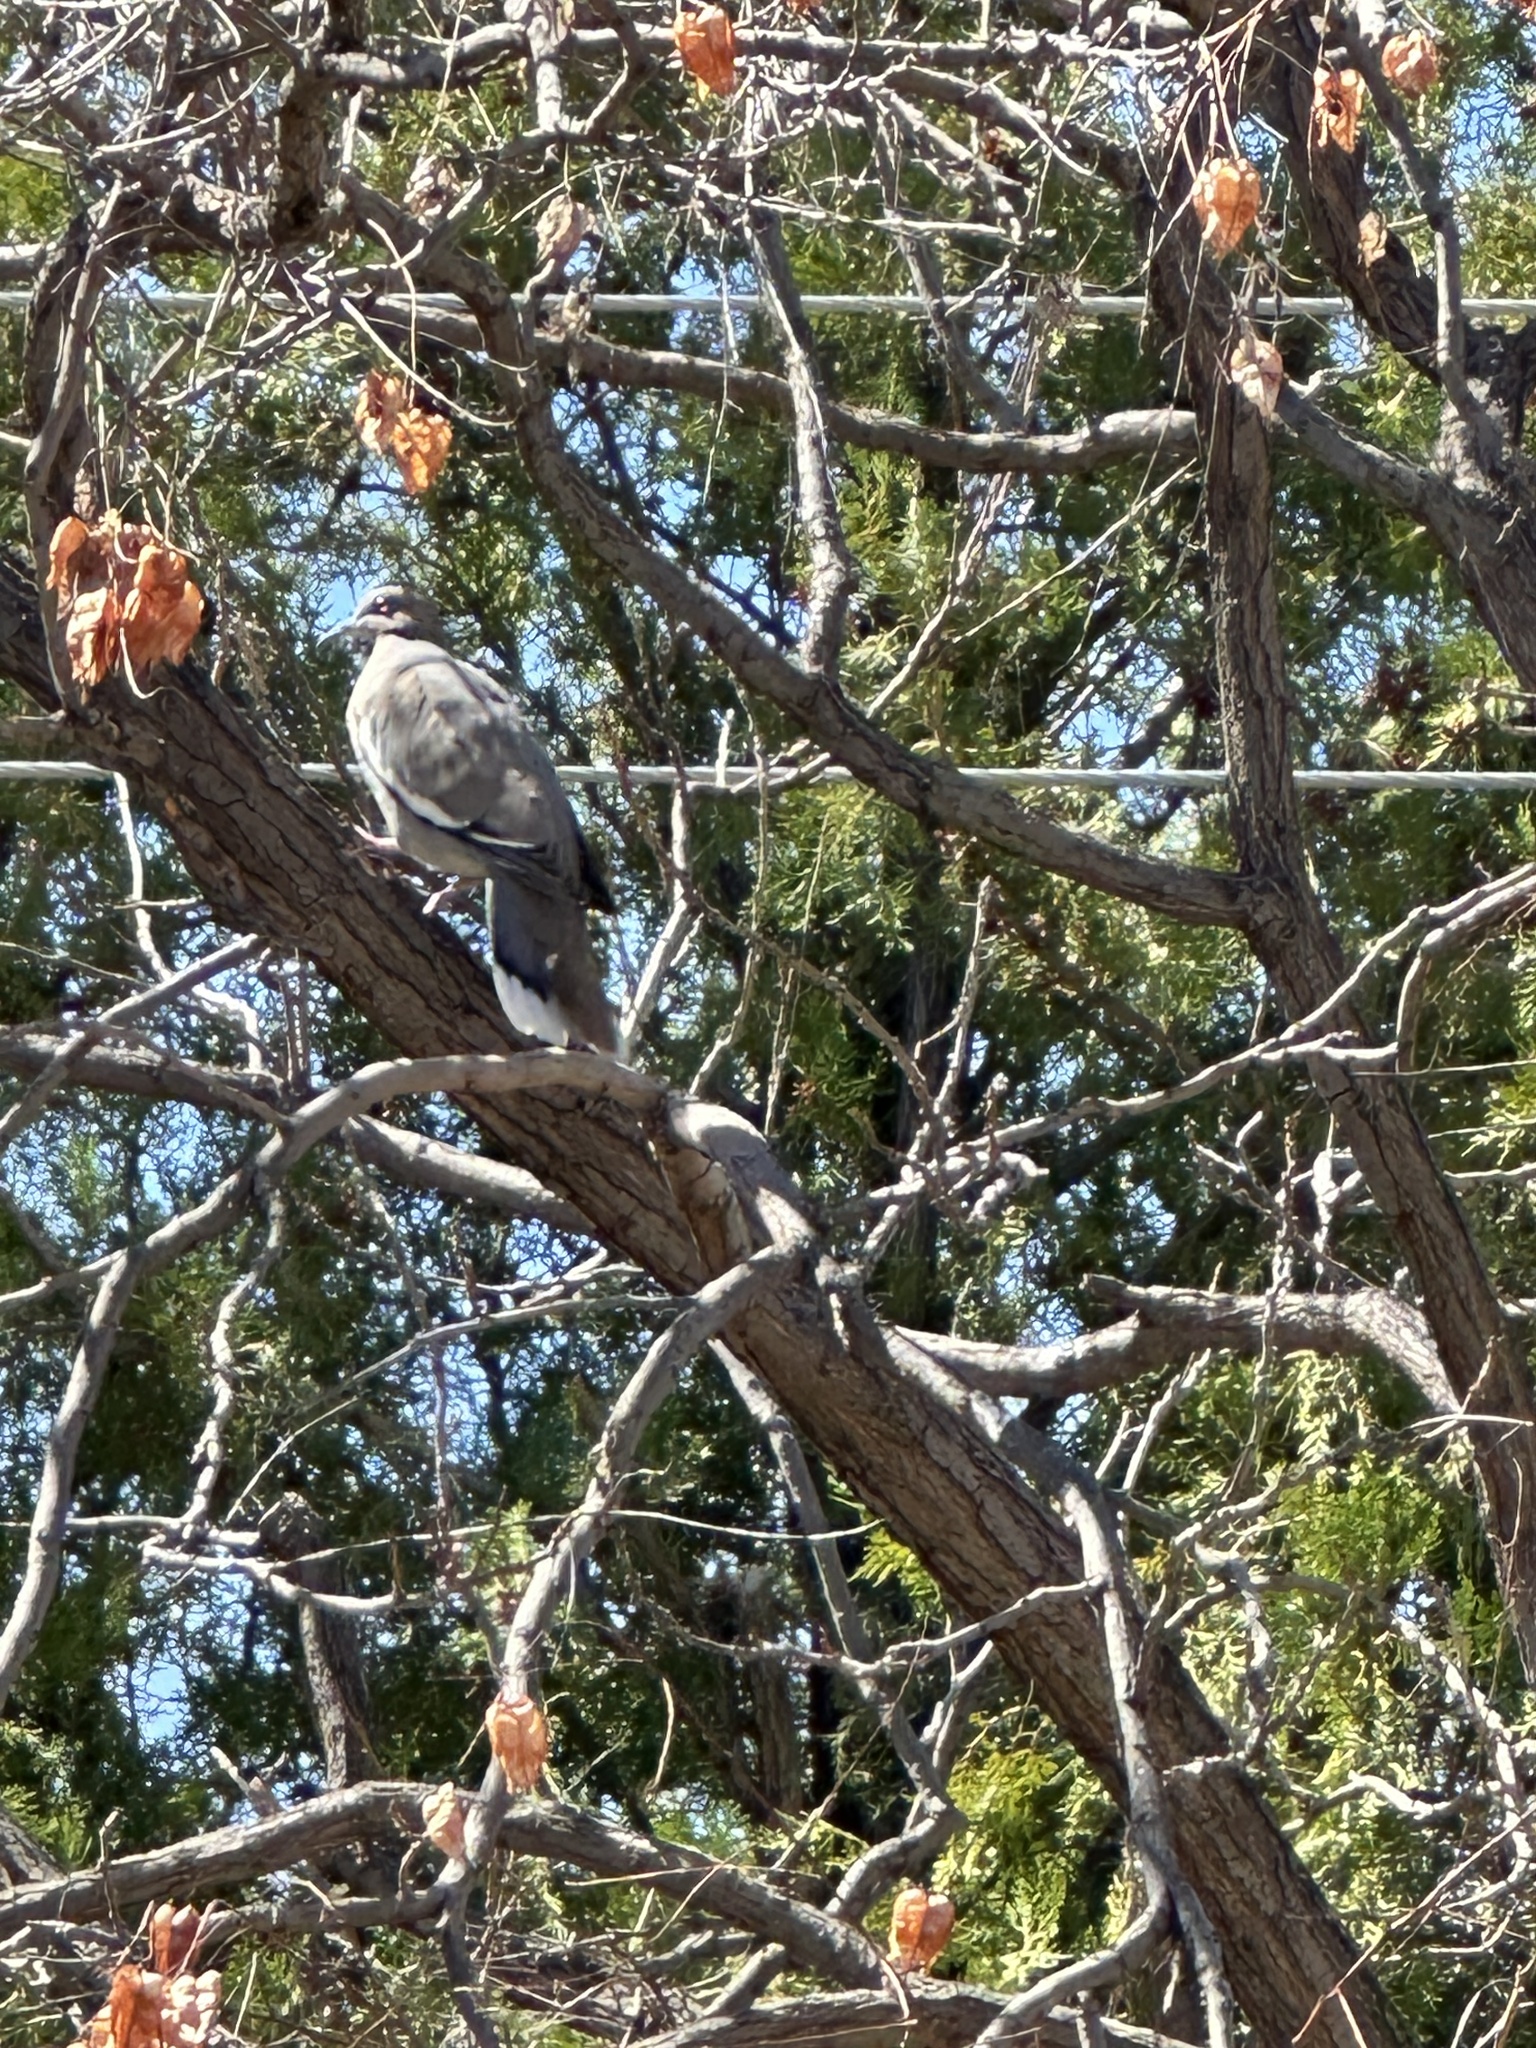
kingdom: Animalia
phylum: Chordata
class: Aves
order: Columbiformes
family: Columbidae
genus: Zenaida
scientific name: Zenaida asiatica
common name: White-winged dove
